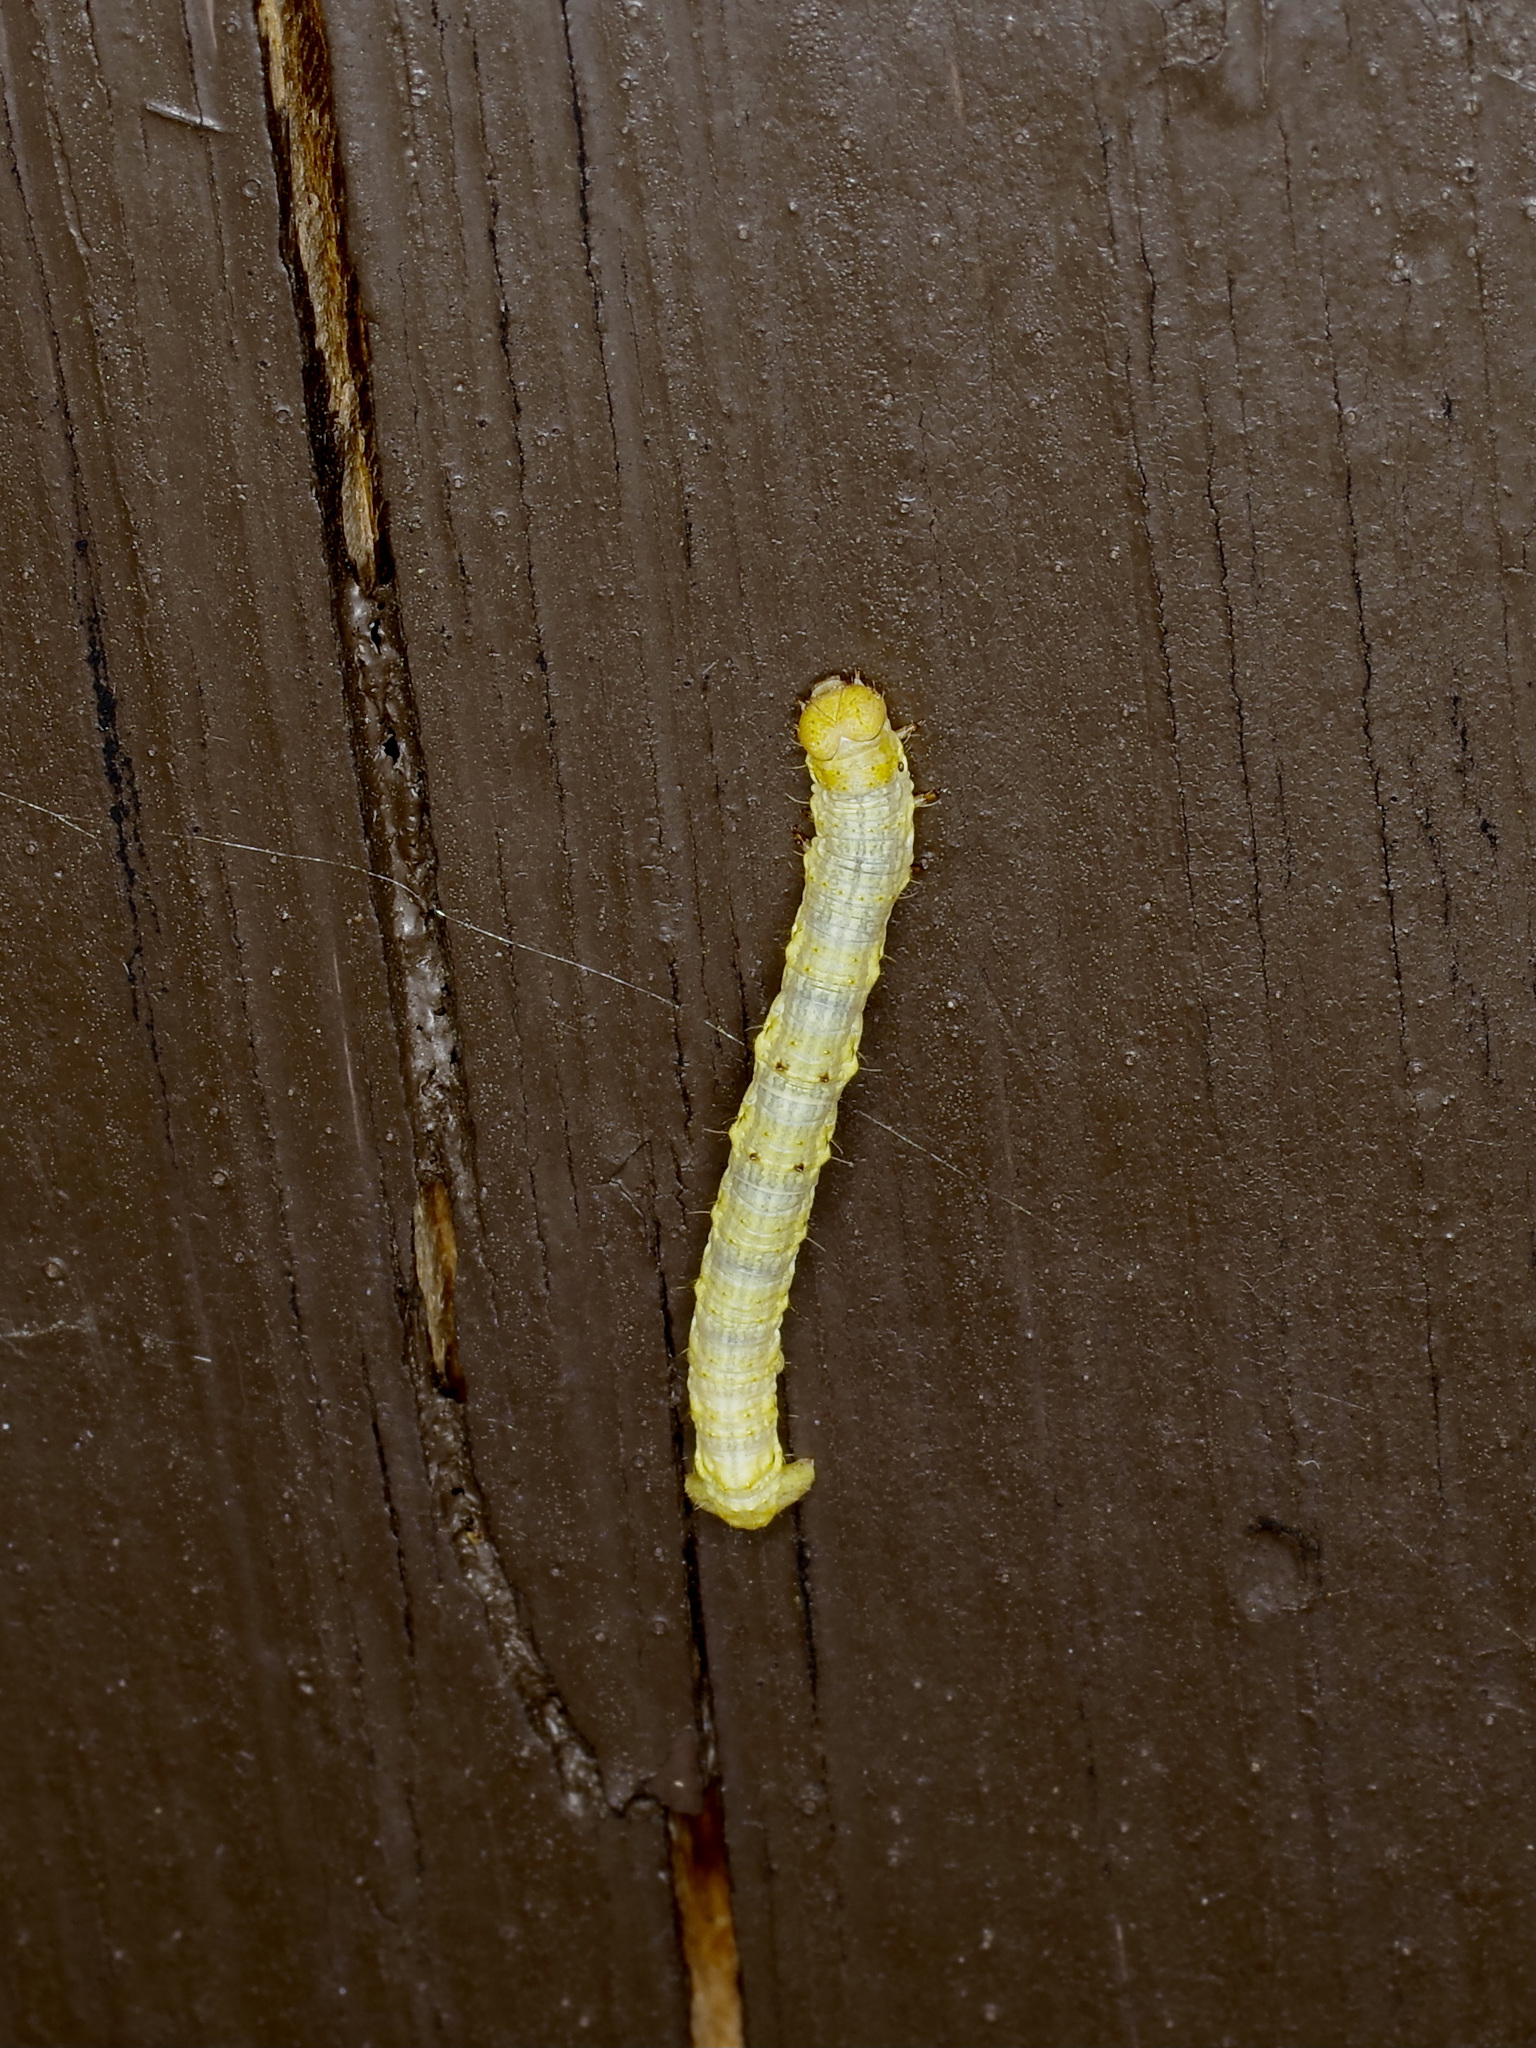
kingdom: Animalia
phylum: Arthropoda
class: Insecta
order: Lepidoptera
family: Geometridae
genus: Phigalia
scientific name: Phigalia strigataria
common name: Small phigalia
